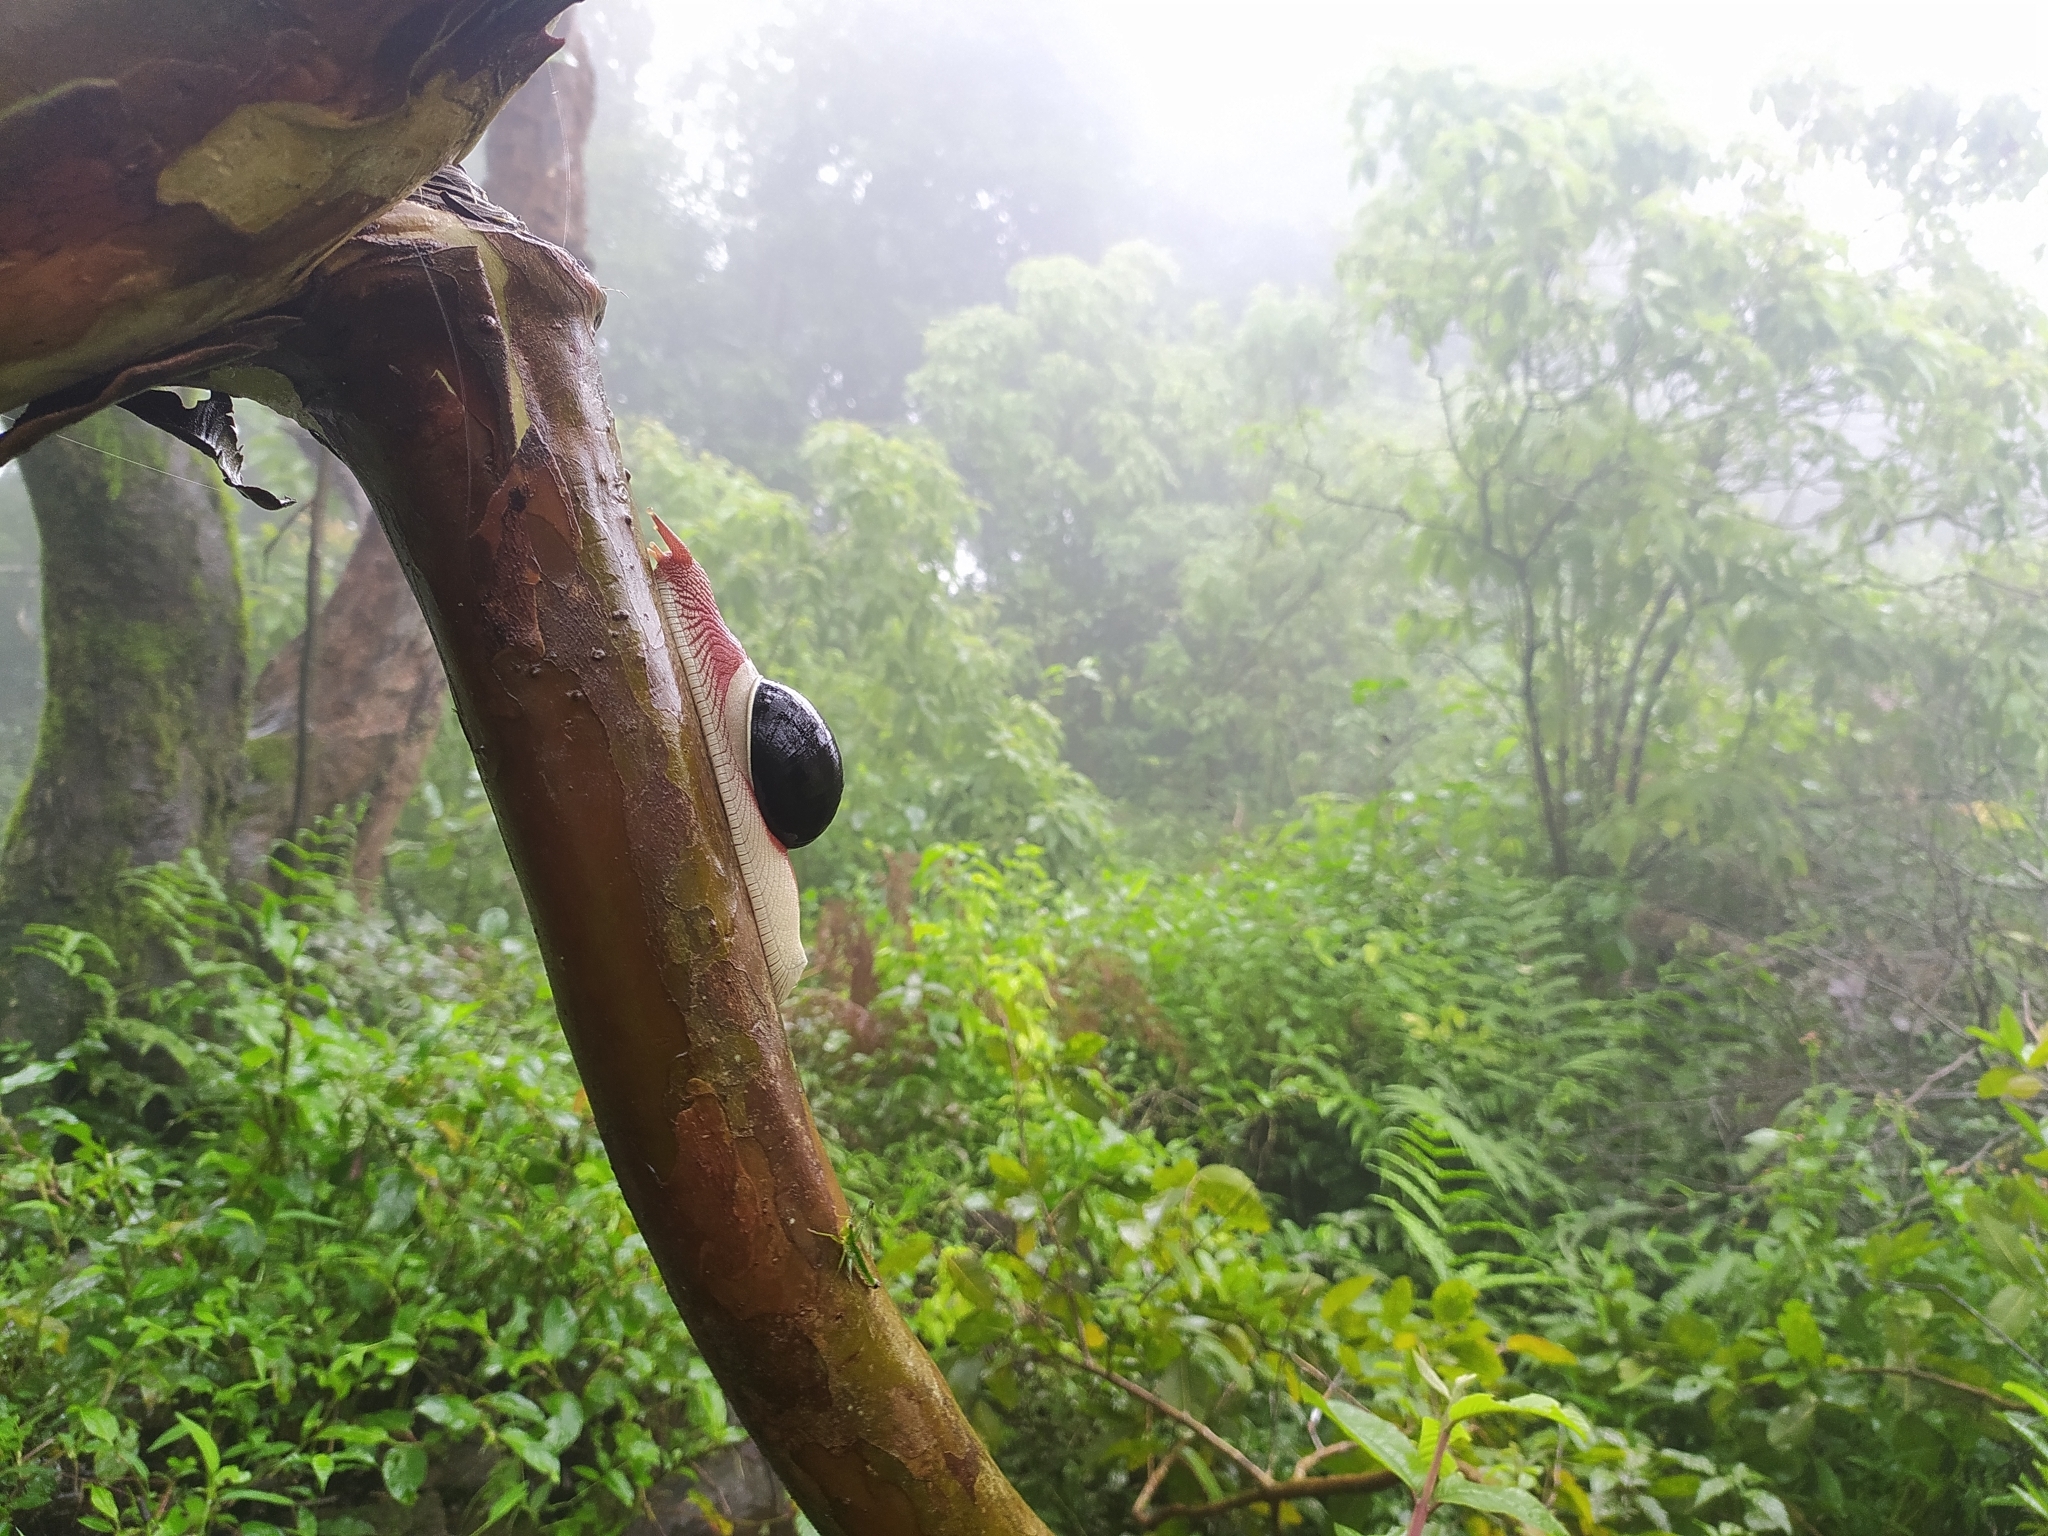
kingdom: Animalia
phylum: Mollusca
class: Gastropoda
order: Stylommatophora
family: Ariophantidae
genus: Indrella
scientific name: Indrella ampulla
